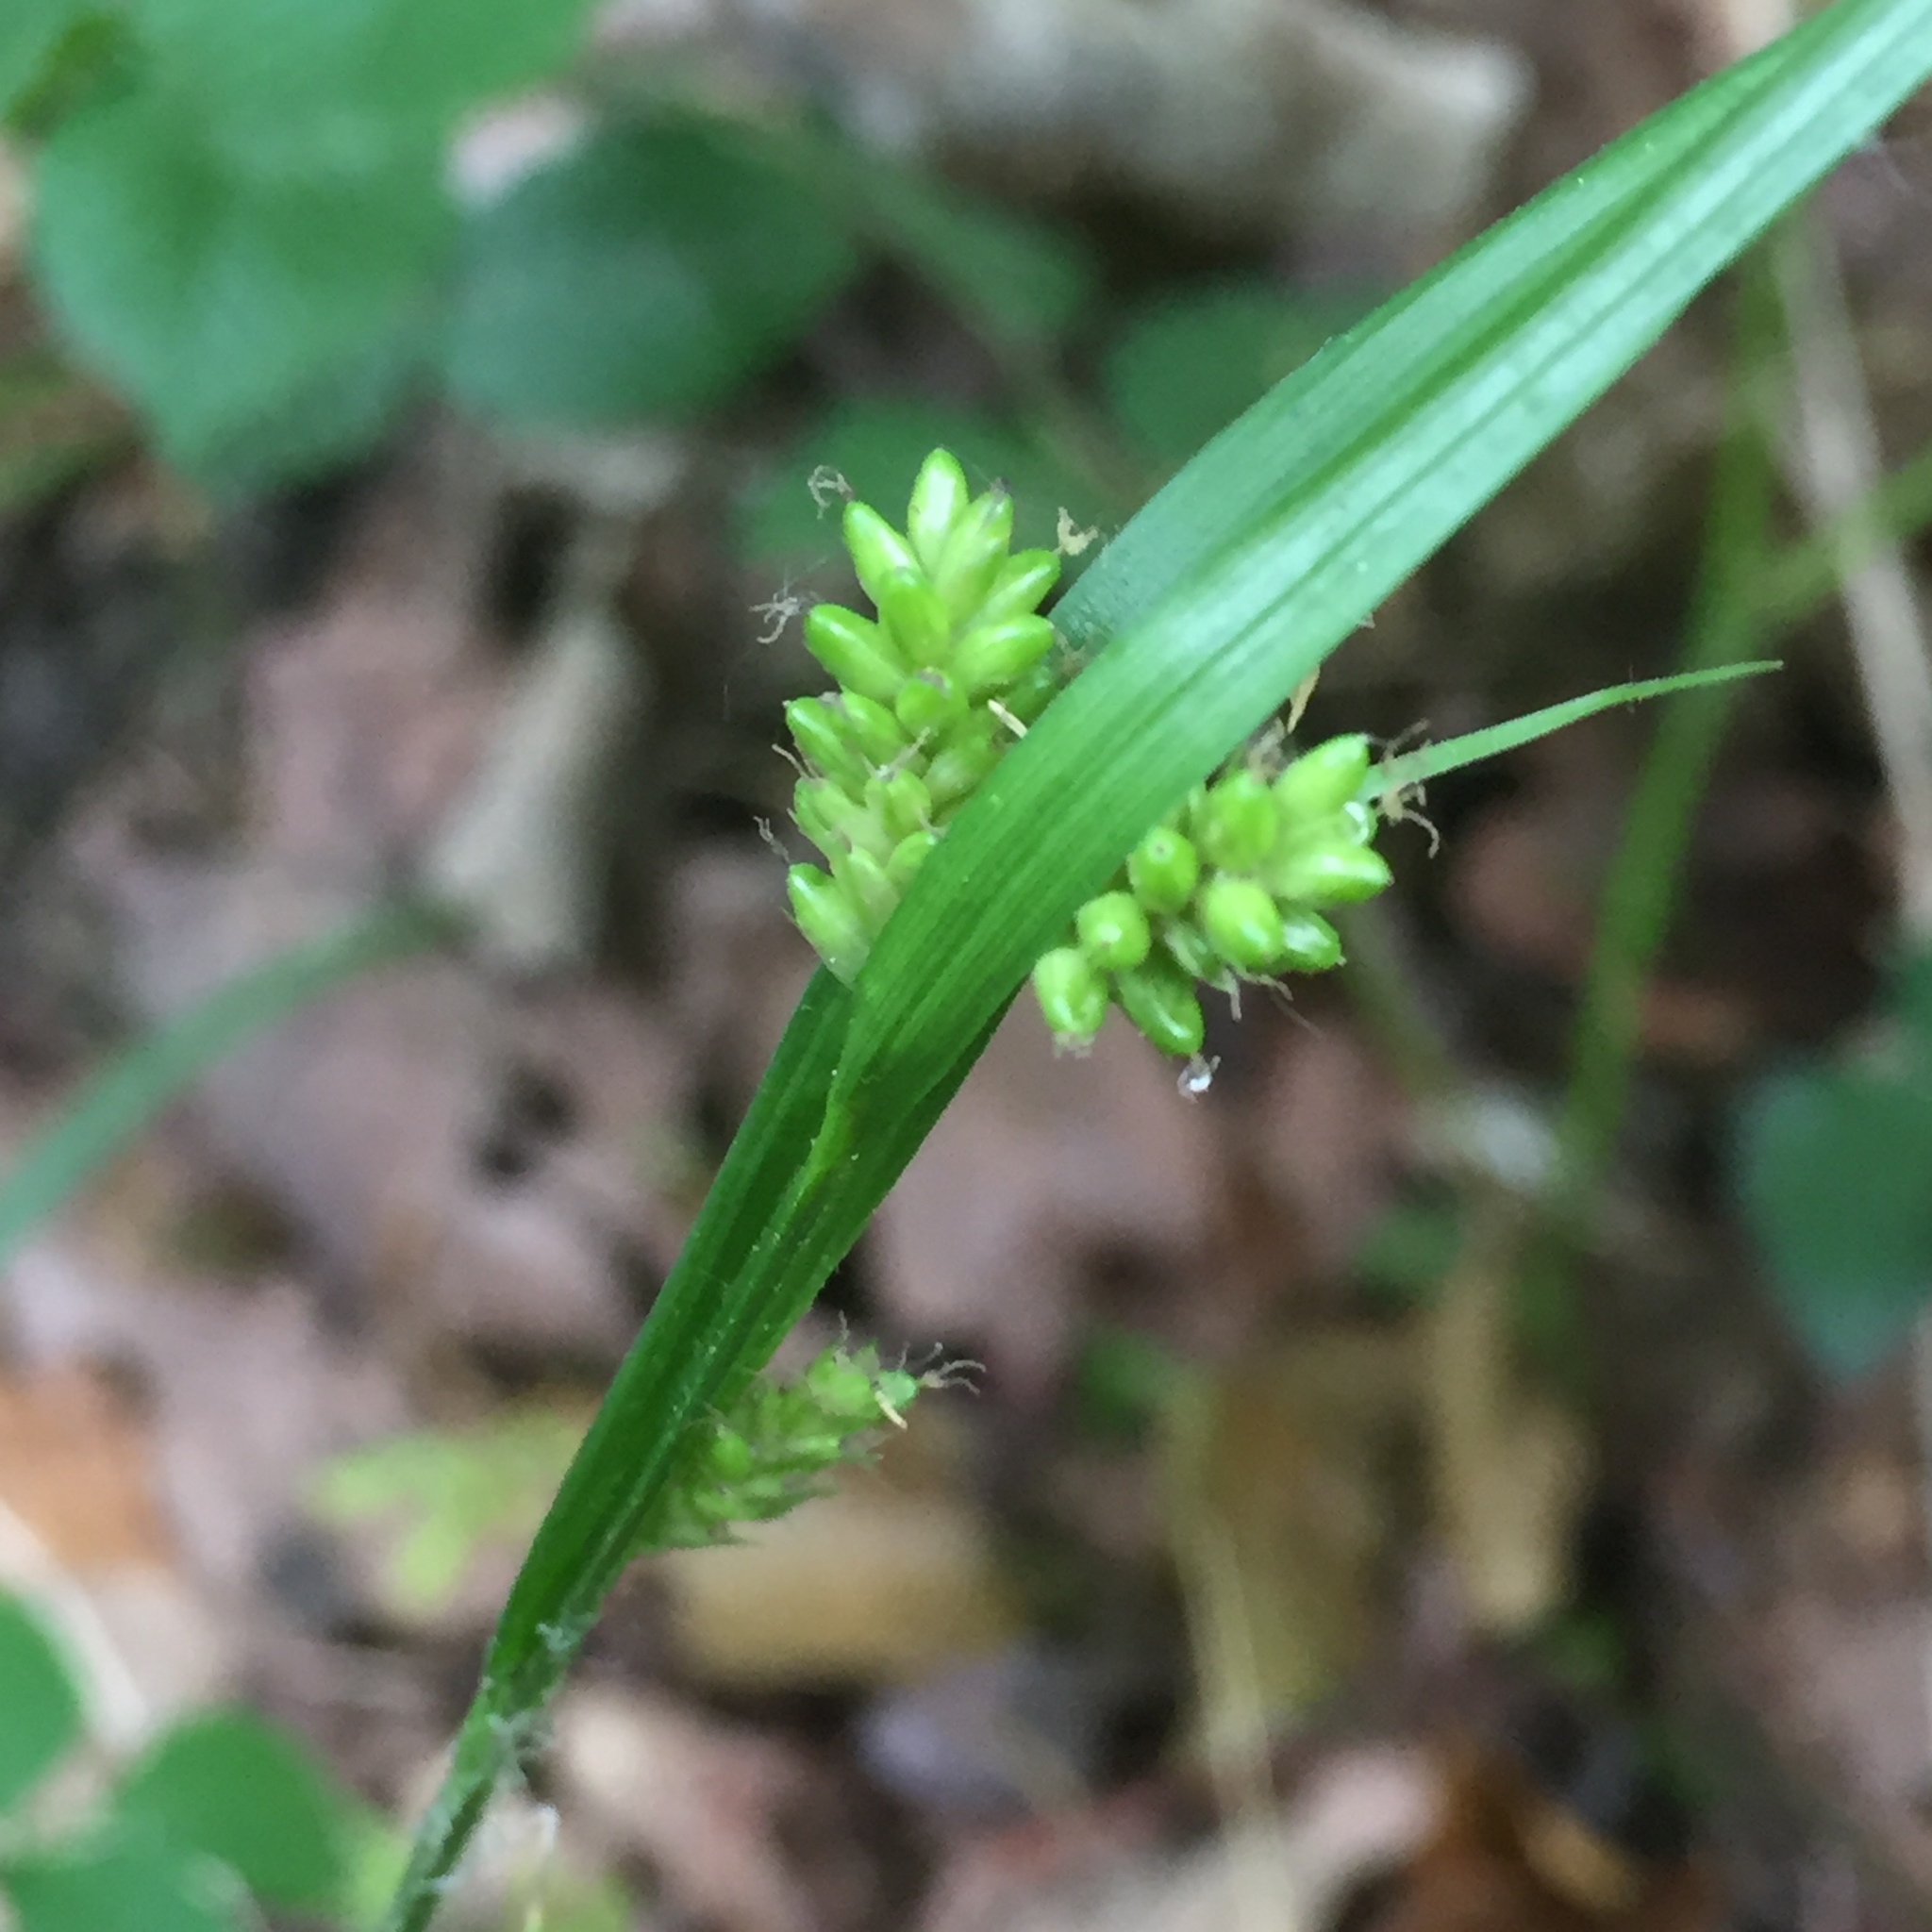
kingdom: Plantae
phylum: Tracheophyta
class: Liliopsida
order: Poales
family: Cyperaceae
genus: Carex
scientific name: Carex pallescens
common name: Pale sedge
